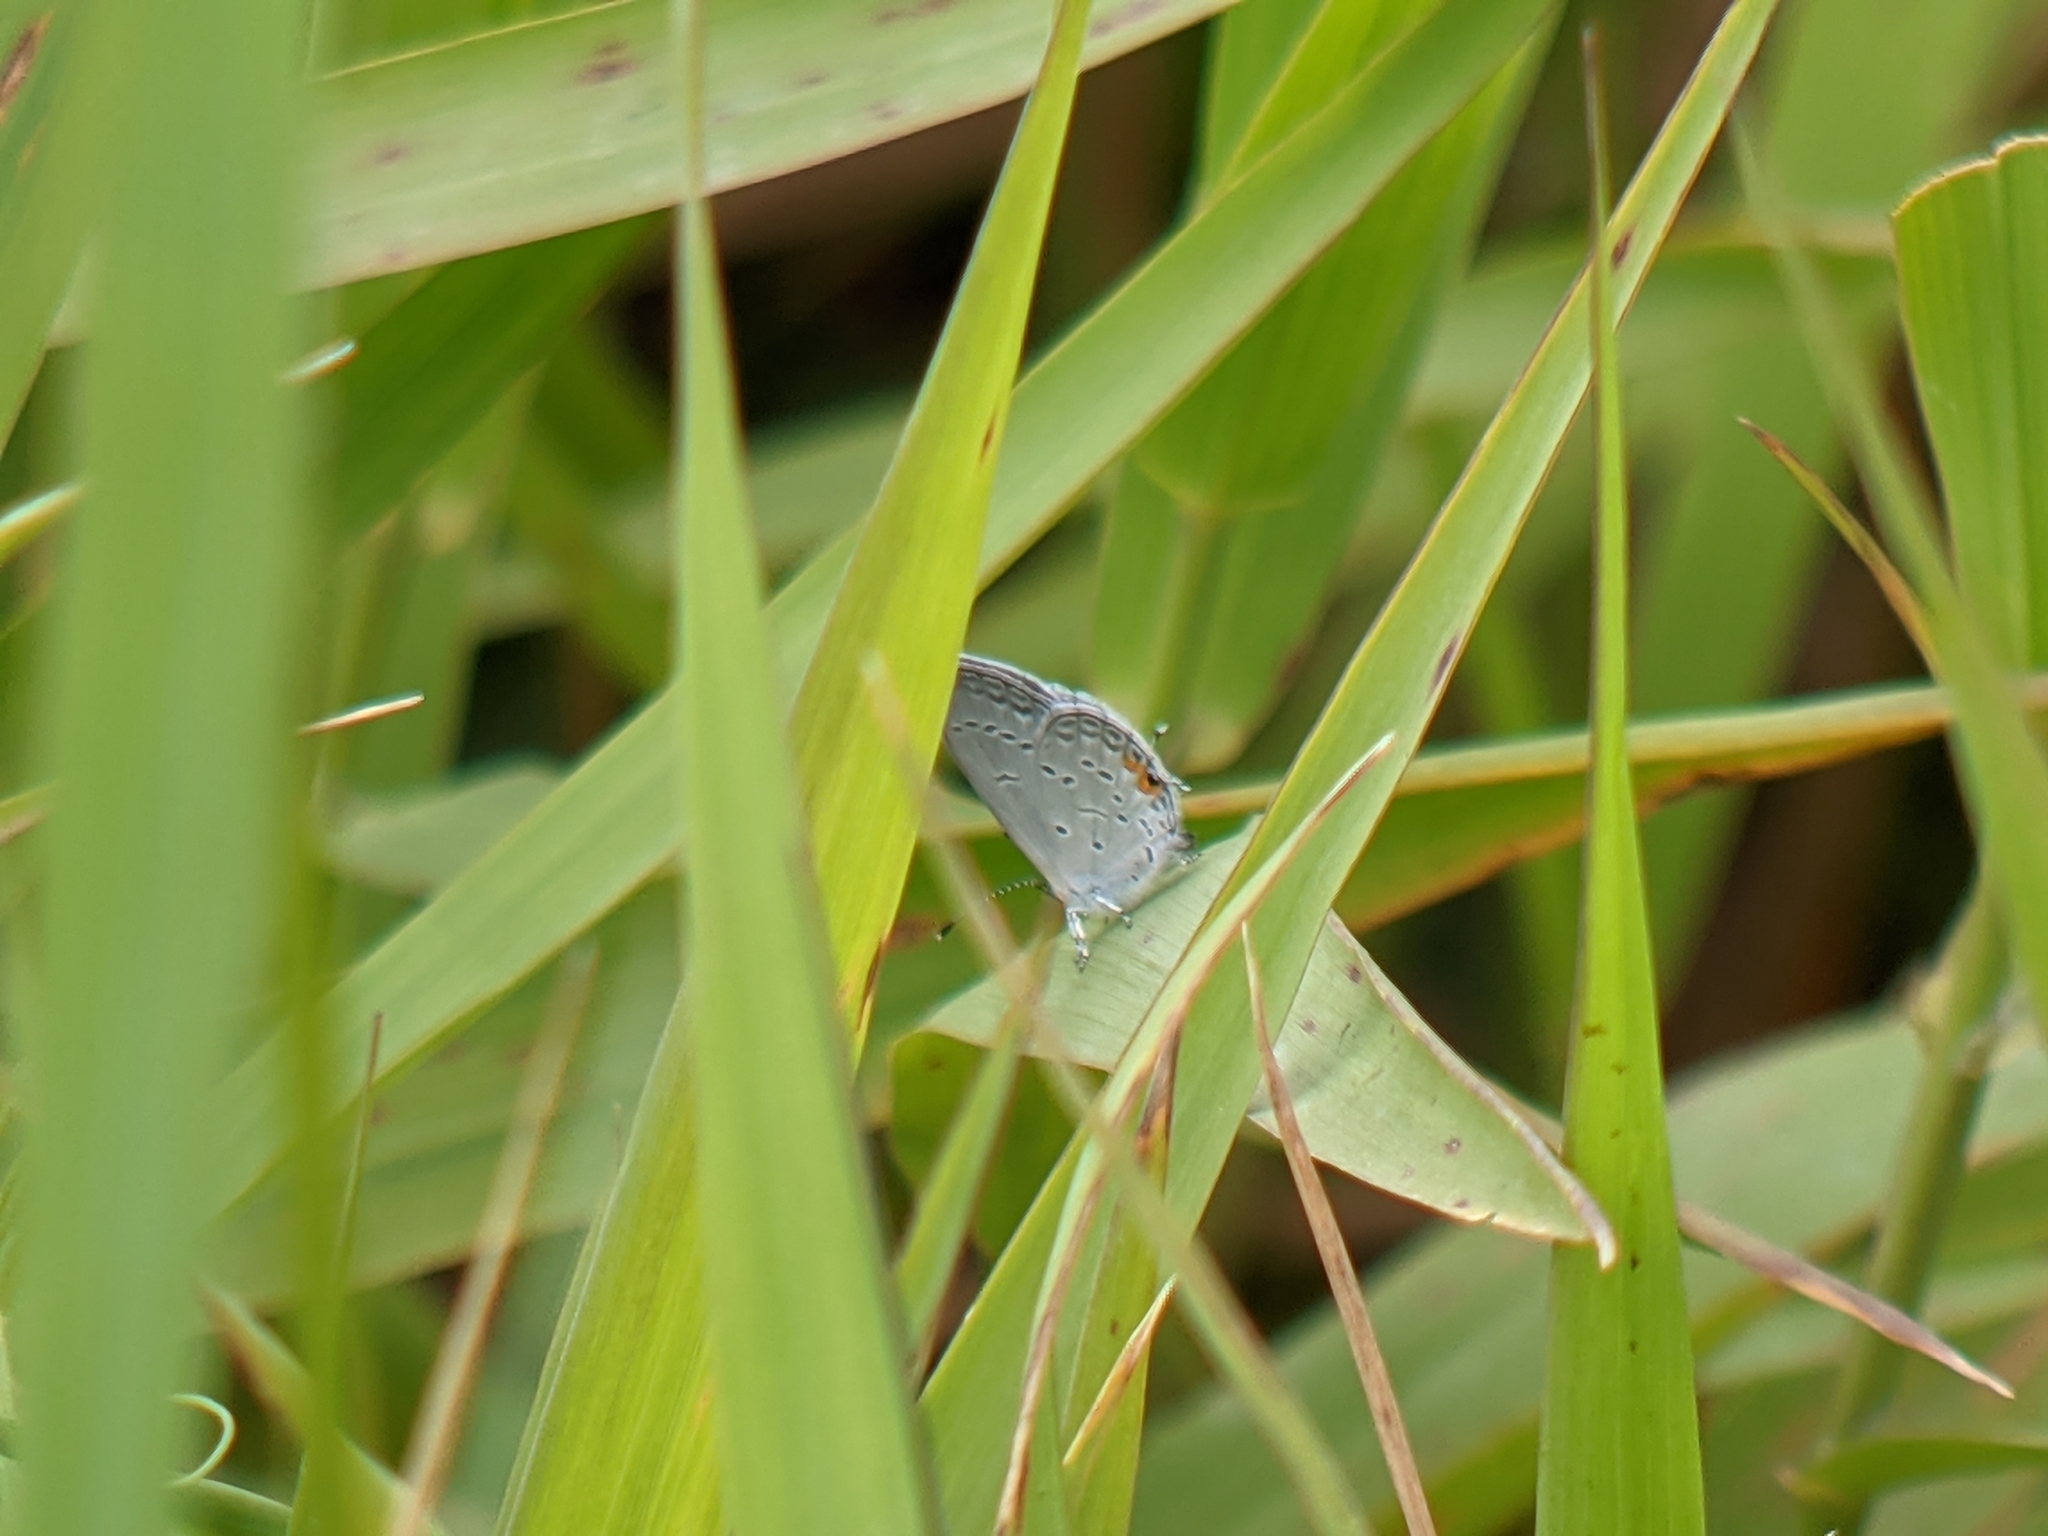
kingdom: Animalia
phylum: Arthropoda
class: Insecta
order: Lepidoptera
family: Lycaenidae
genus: Elkalyce
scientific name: Elkalyce comyntas
